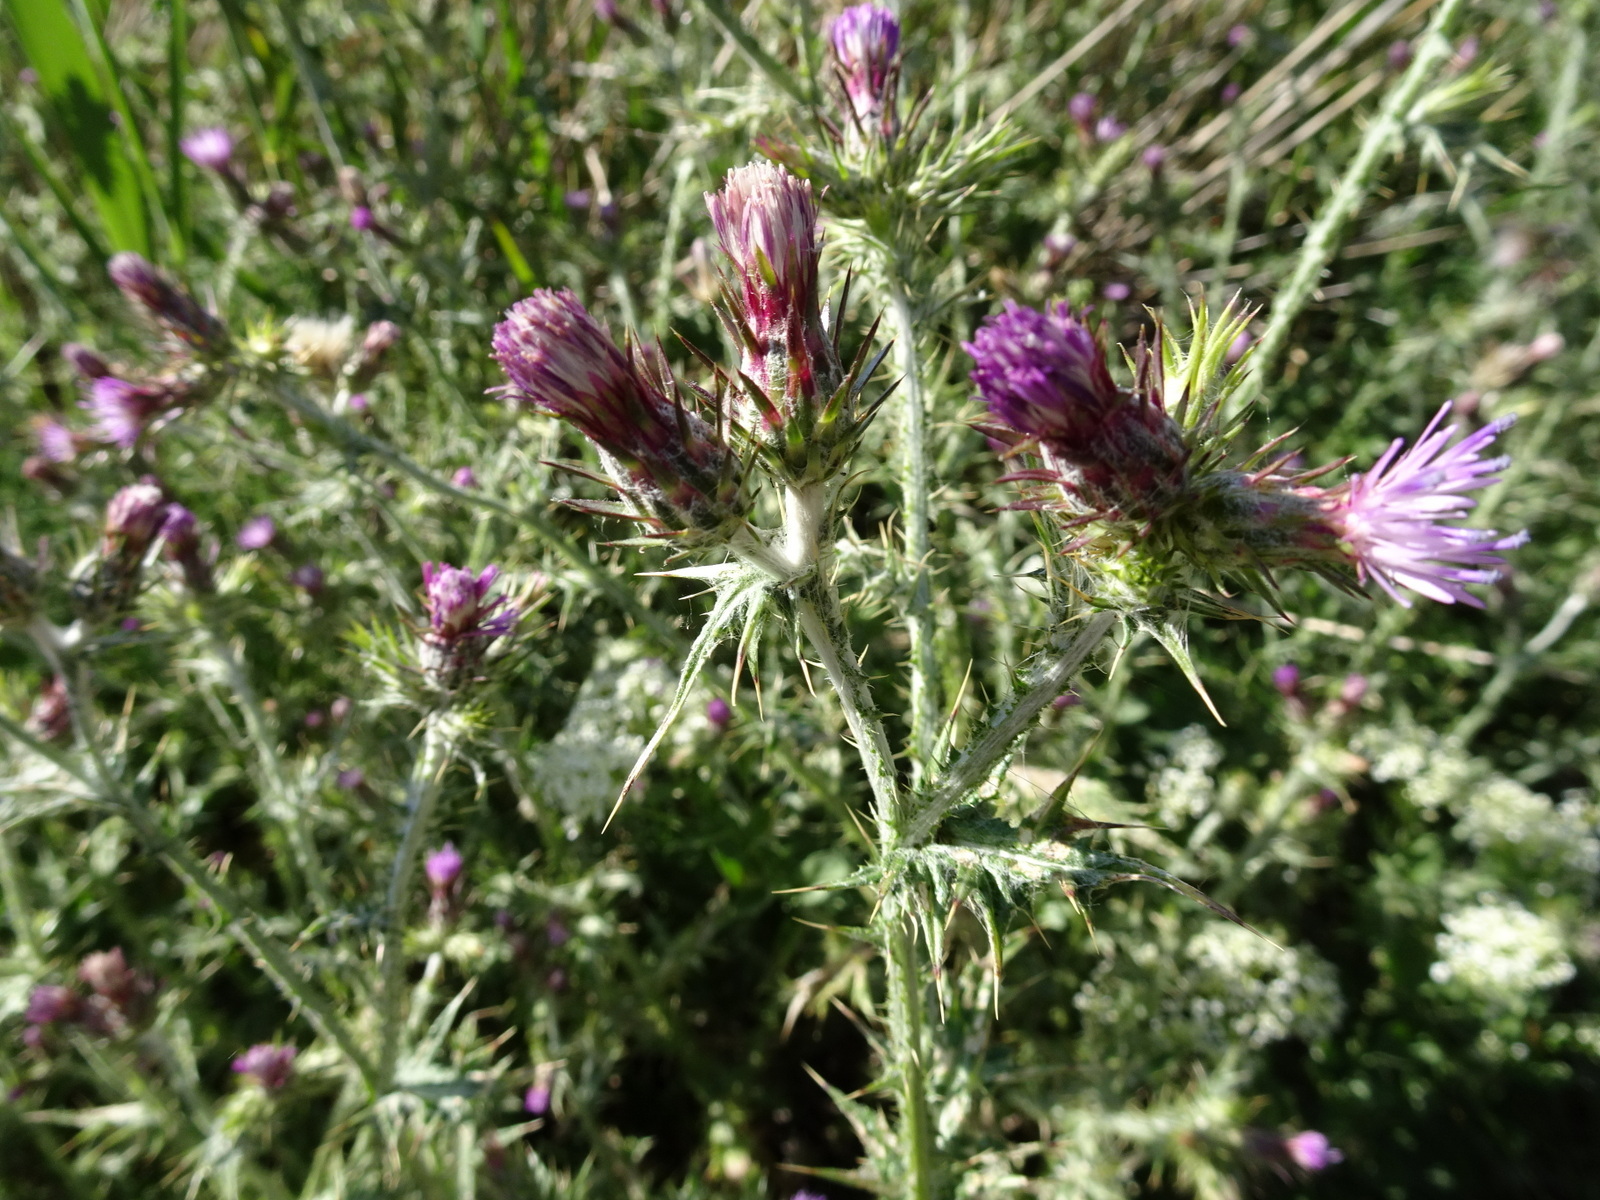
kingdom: Plantae
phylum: Tracheophyta
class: Magnoliopsida
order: Asterales
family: Asteraceae
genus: Carduus
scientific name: Carduus pycnocephalus
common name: Plymouth thistle
